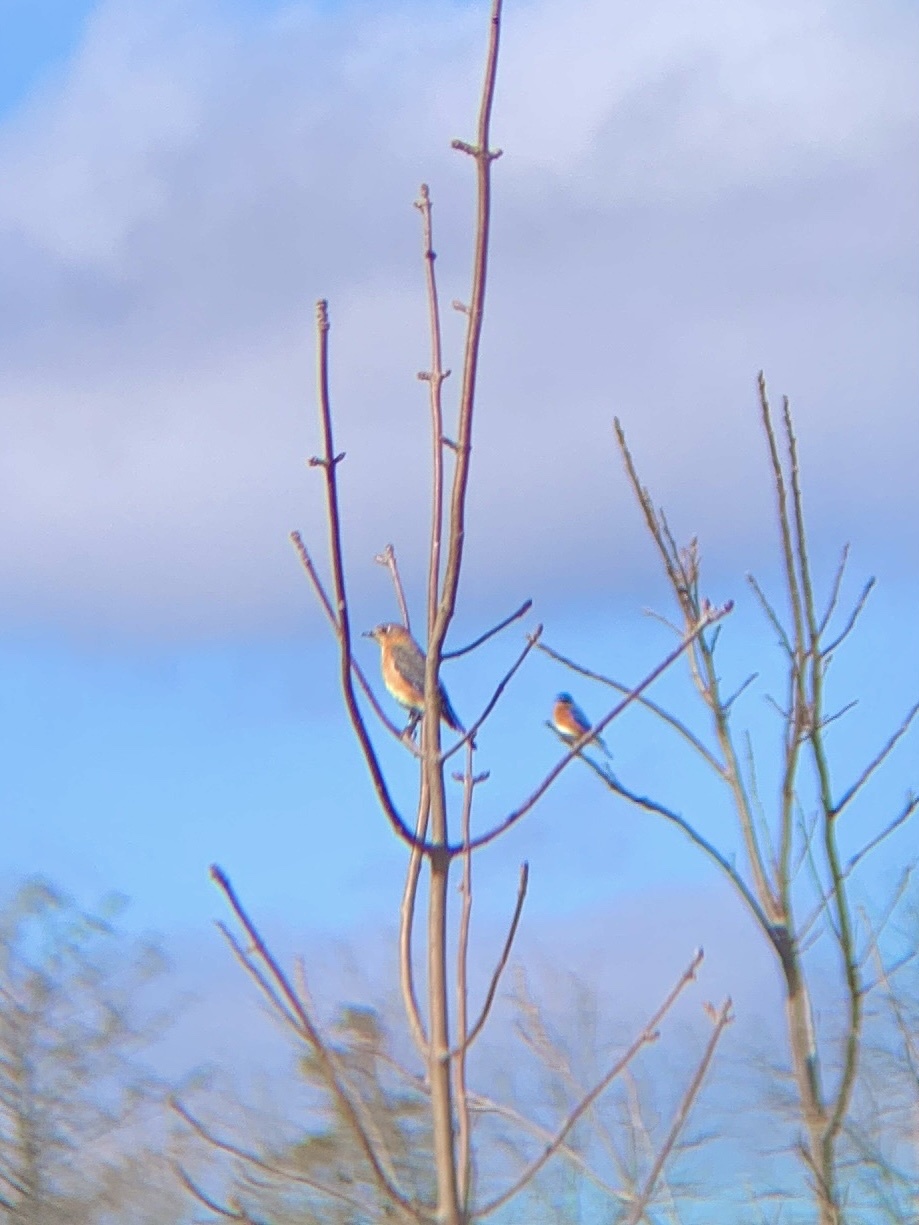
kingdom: Animalia
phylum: Chordata
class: Aves
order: Passeriformes
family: Turdidae
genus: Sialia
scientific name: Sialia sialis
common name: Eastern bluebird
